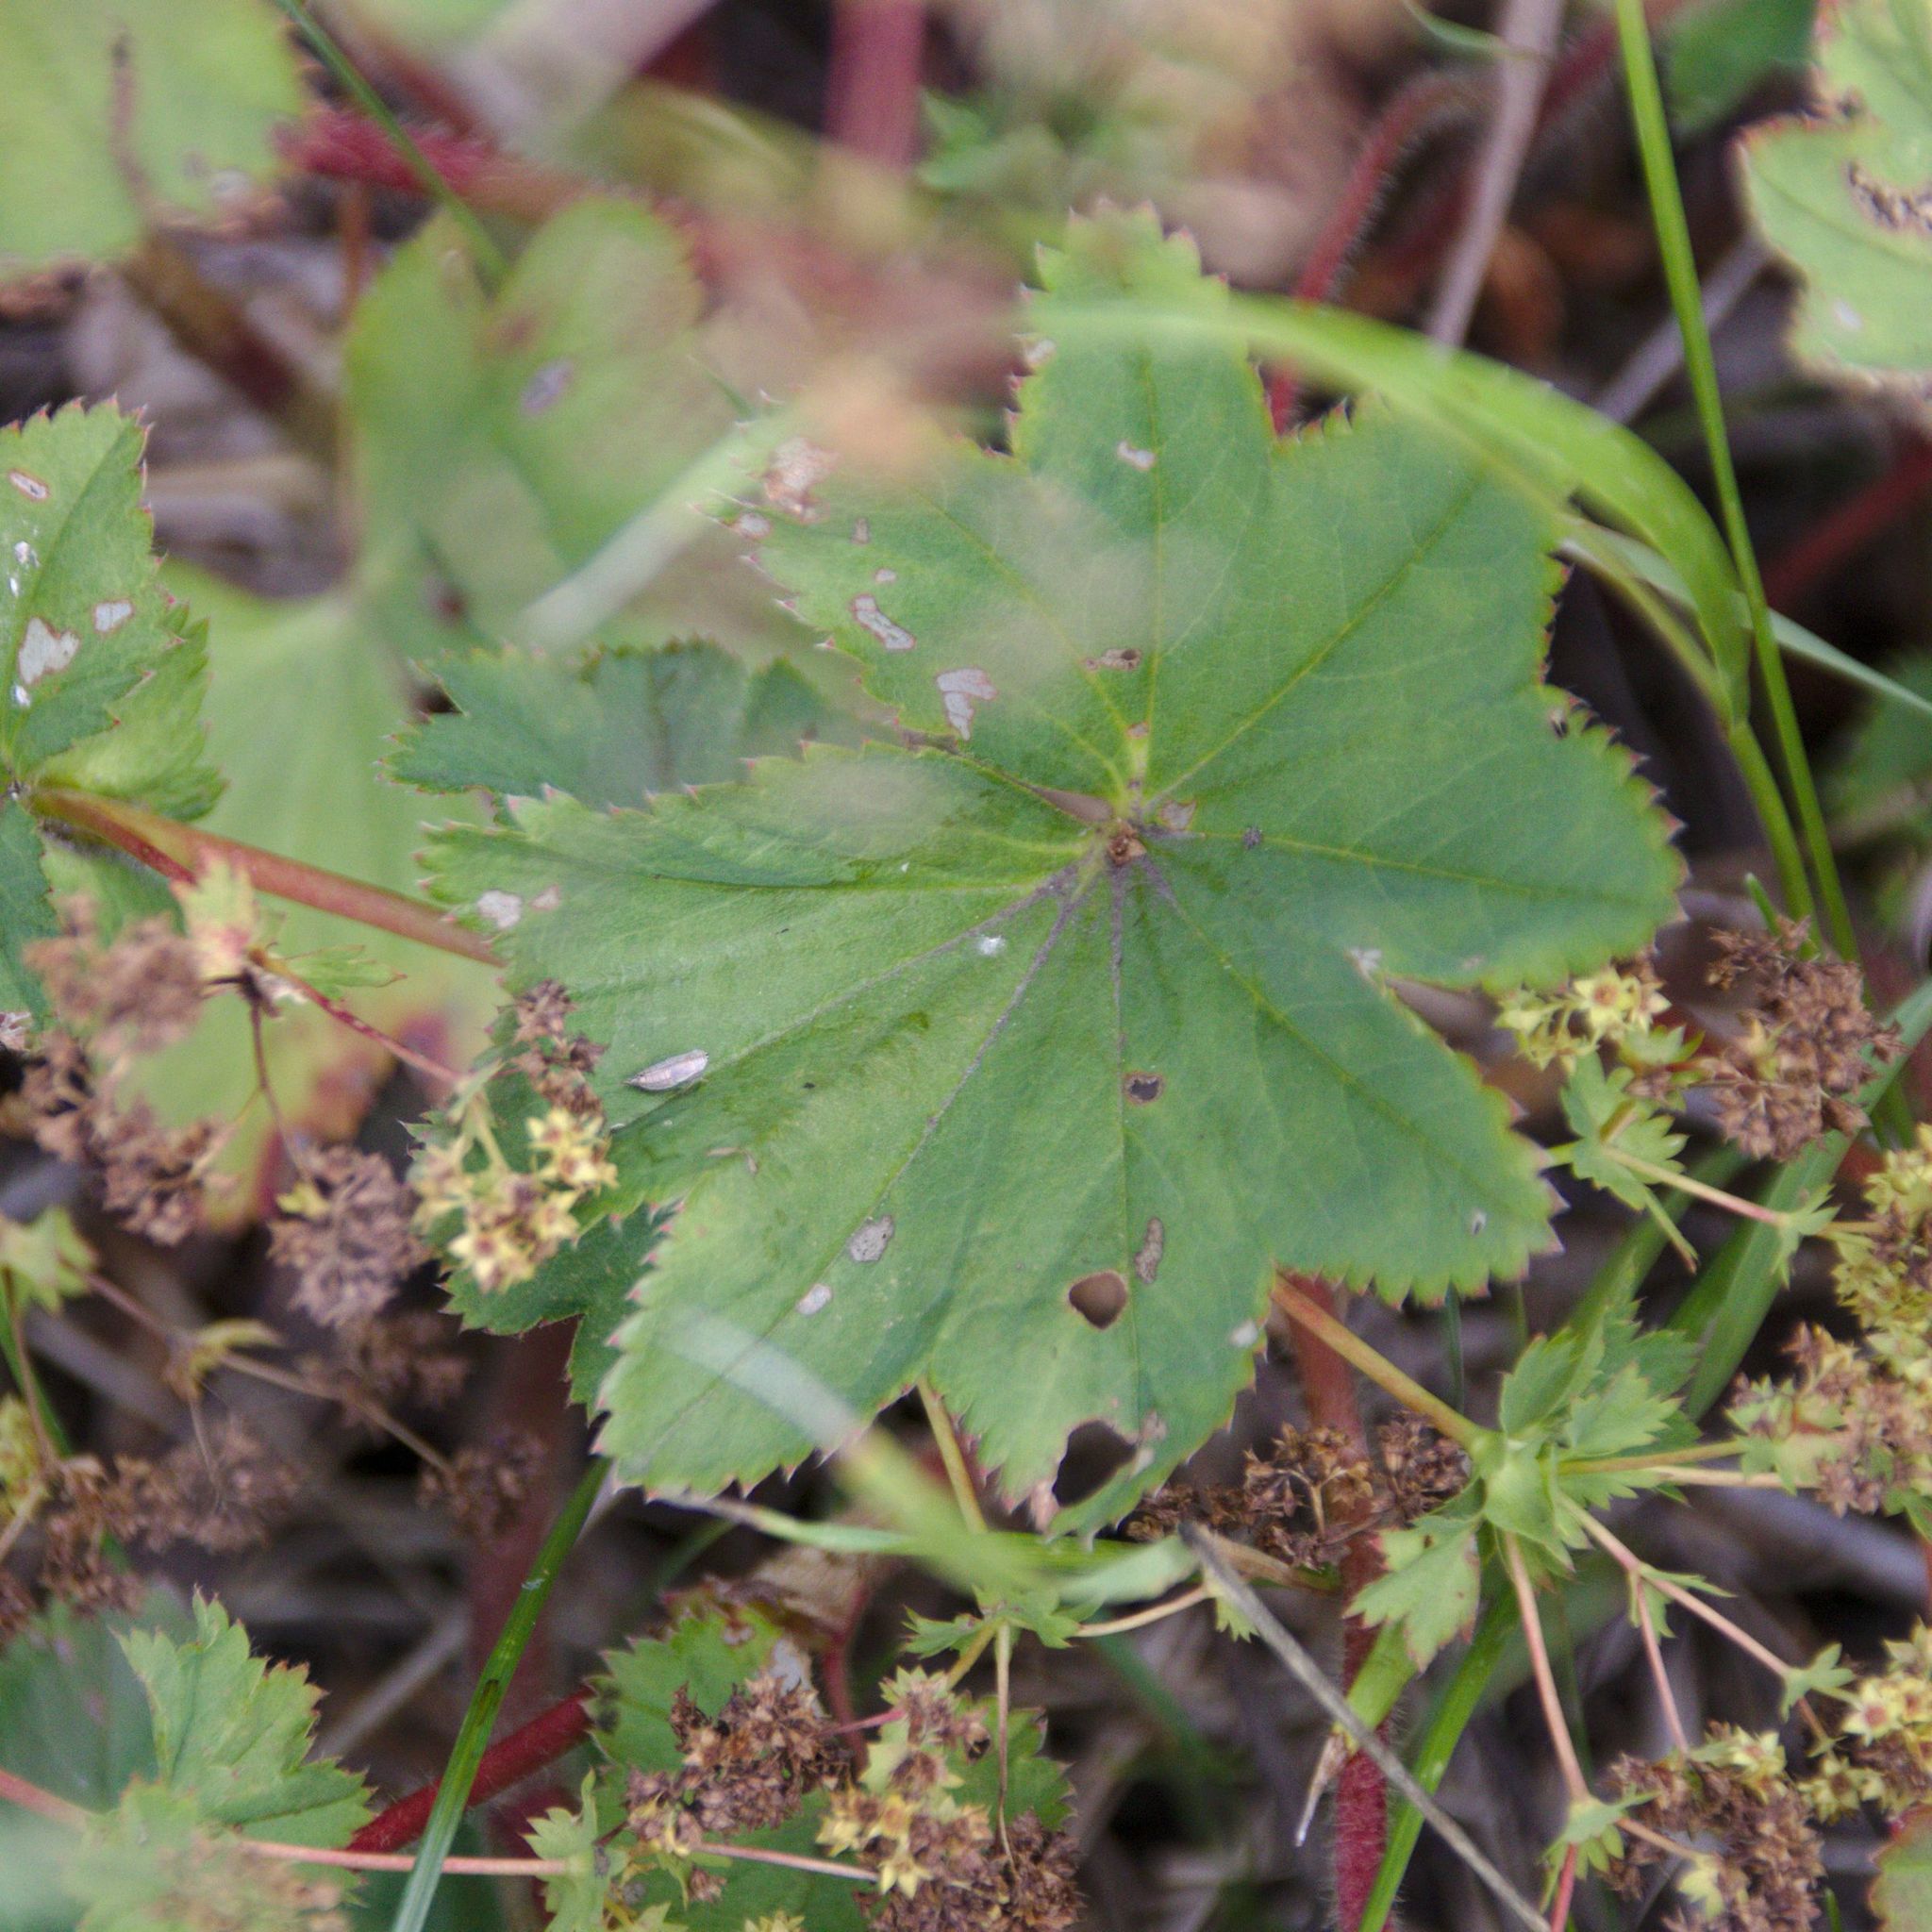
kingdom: Plantae
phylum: Tracheophyta
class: Magnoliopsida
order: Rosales
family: Rosaceae
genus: Alchemilla
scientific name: Alchemilla leiophylla
